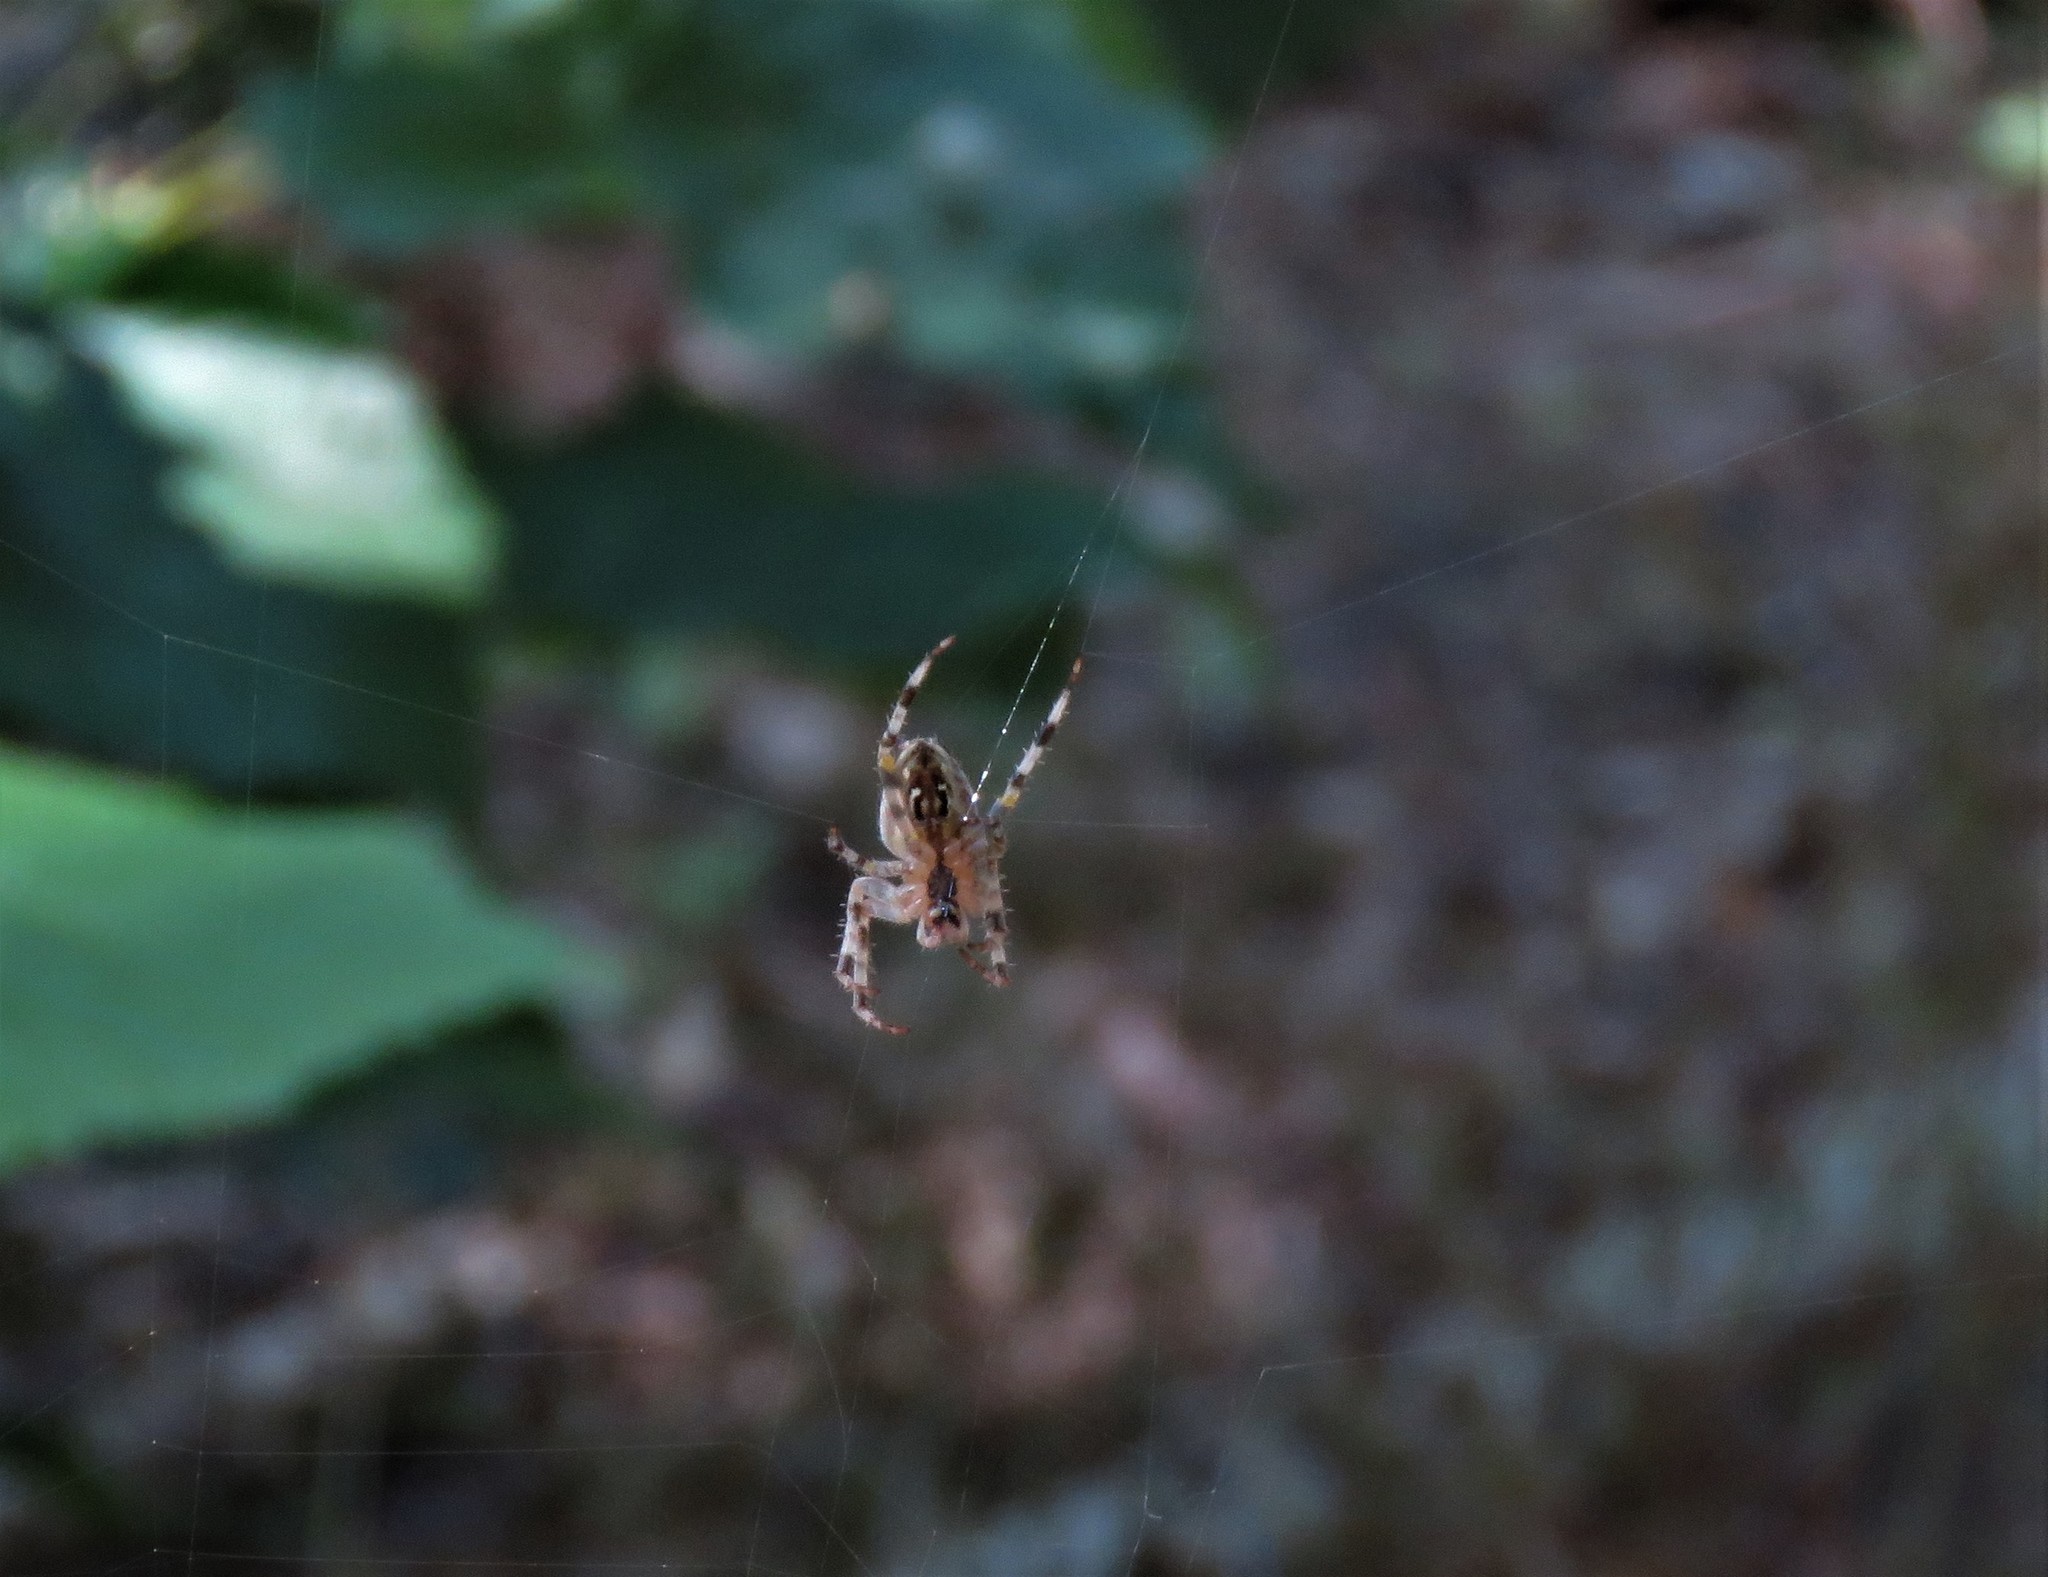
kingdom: Animalia
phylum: Arthropoda
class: Arachnida
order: Araneae
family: Araneidae
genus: Araneus
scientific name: Araneus diadematus
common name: Cross orbweaver
